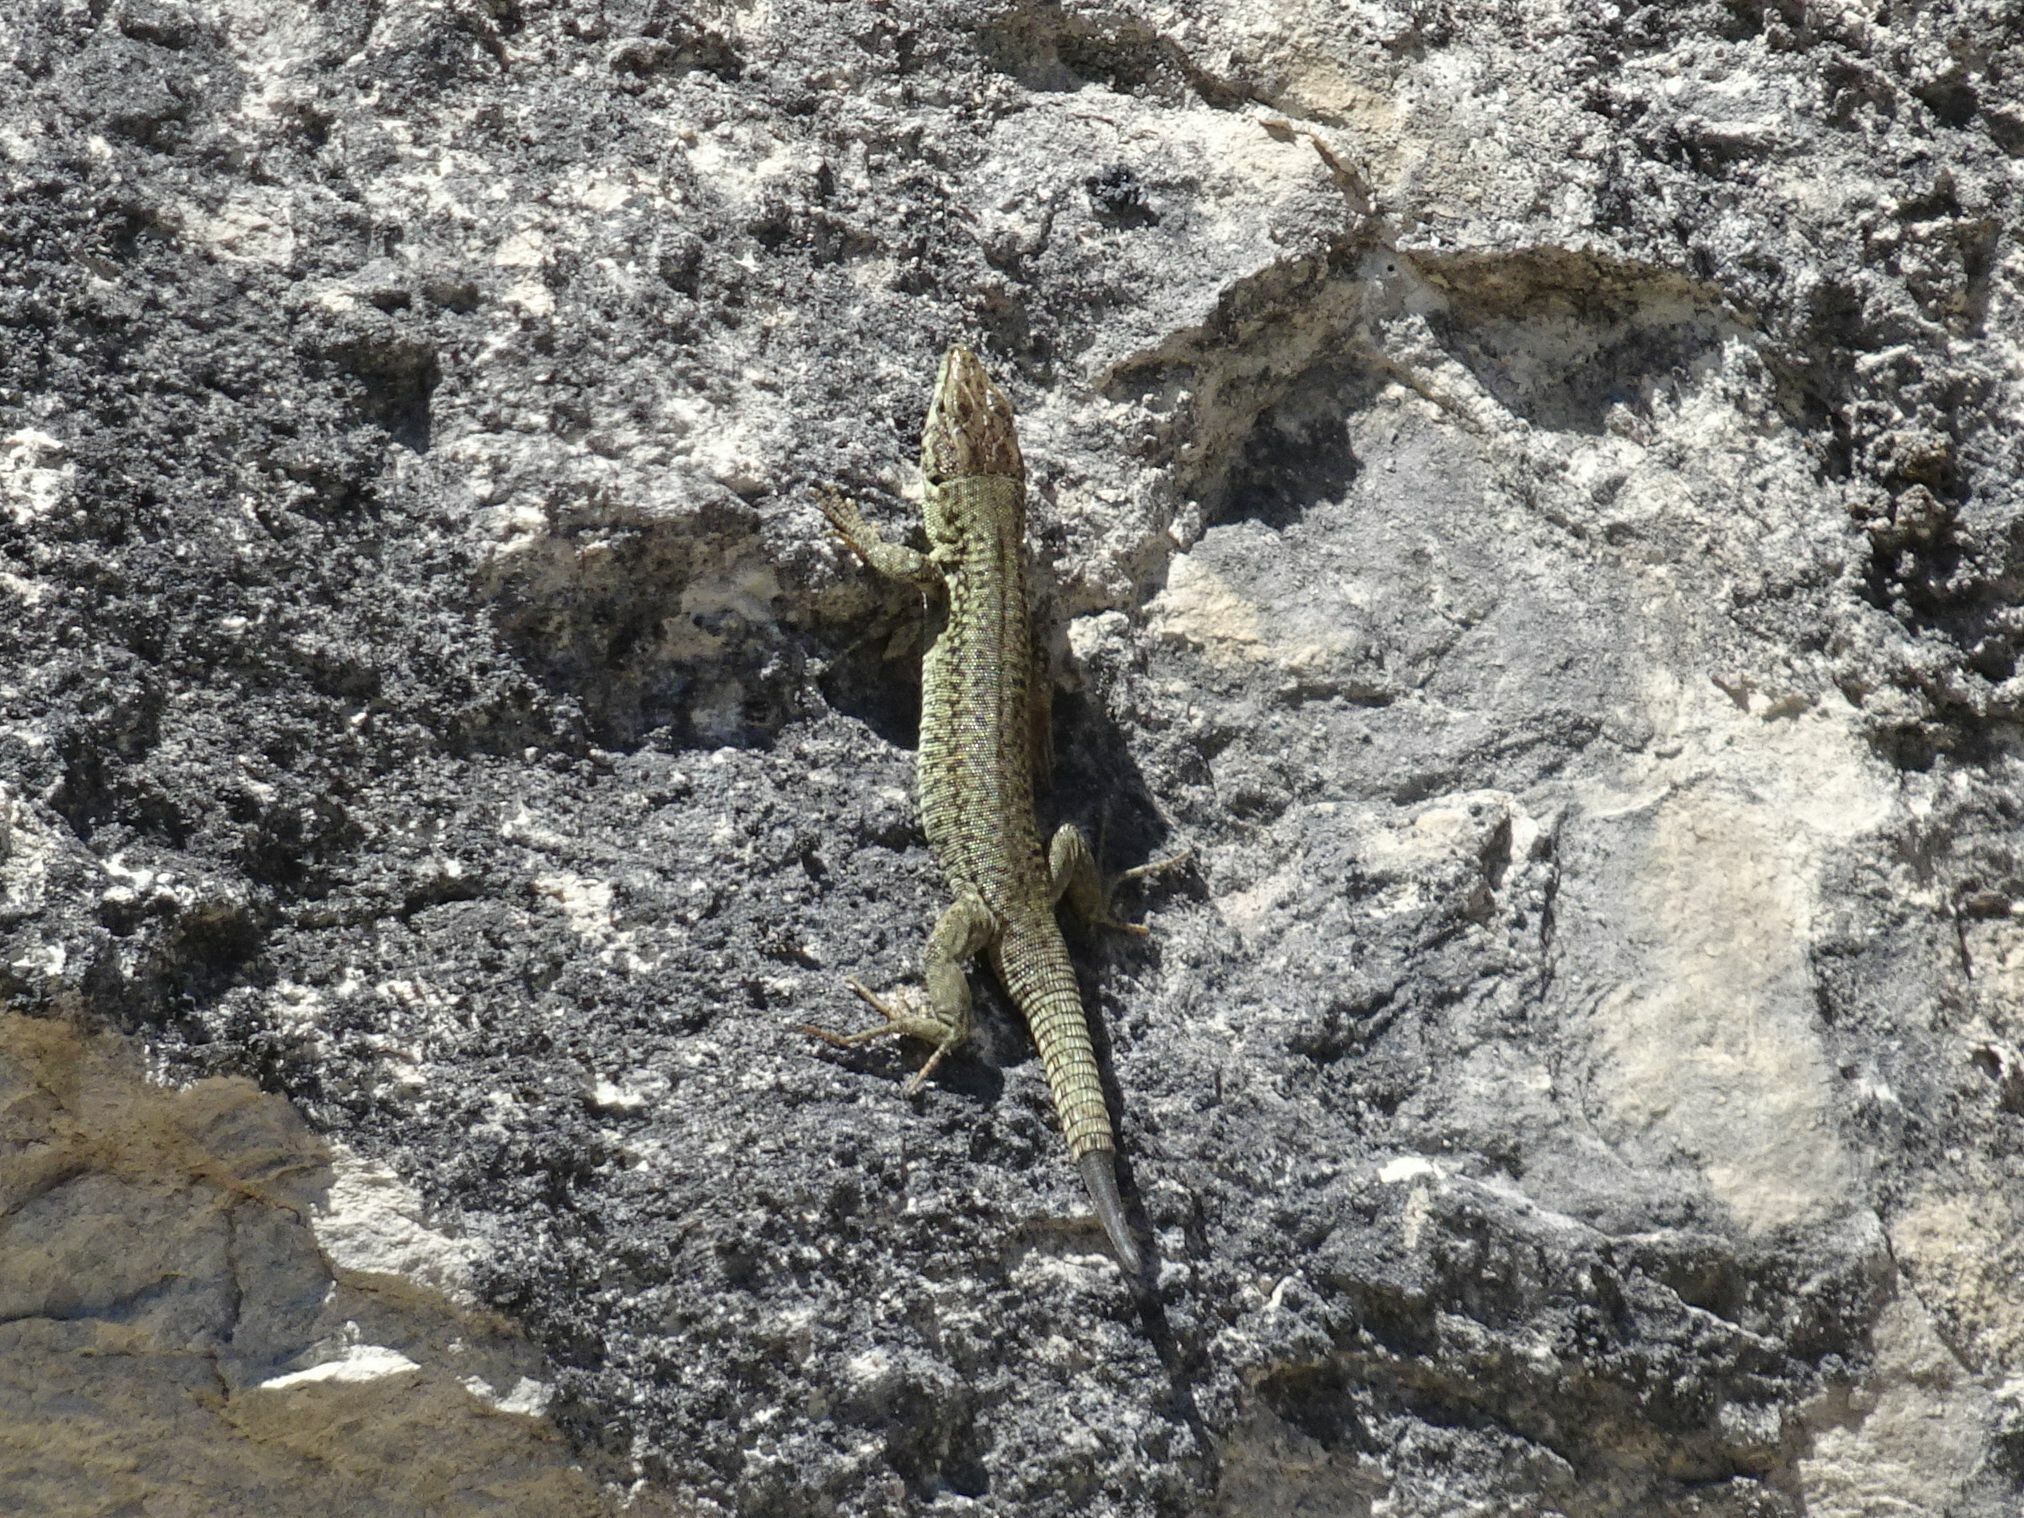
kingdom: Animalia
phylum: Chordata
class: Squamata
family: Lacertidae
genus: Podarcis
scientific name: Podarcis liolepis
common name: Catalonian wall lizard
